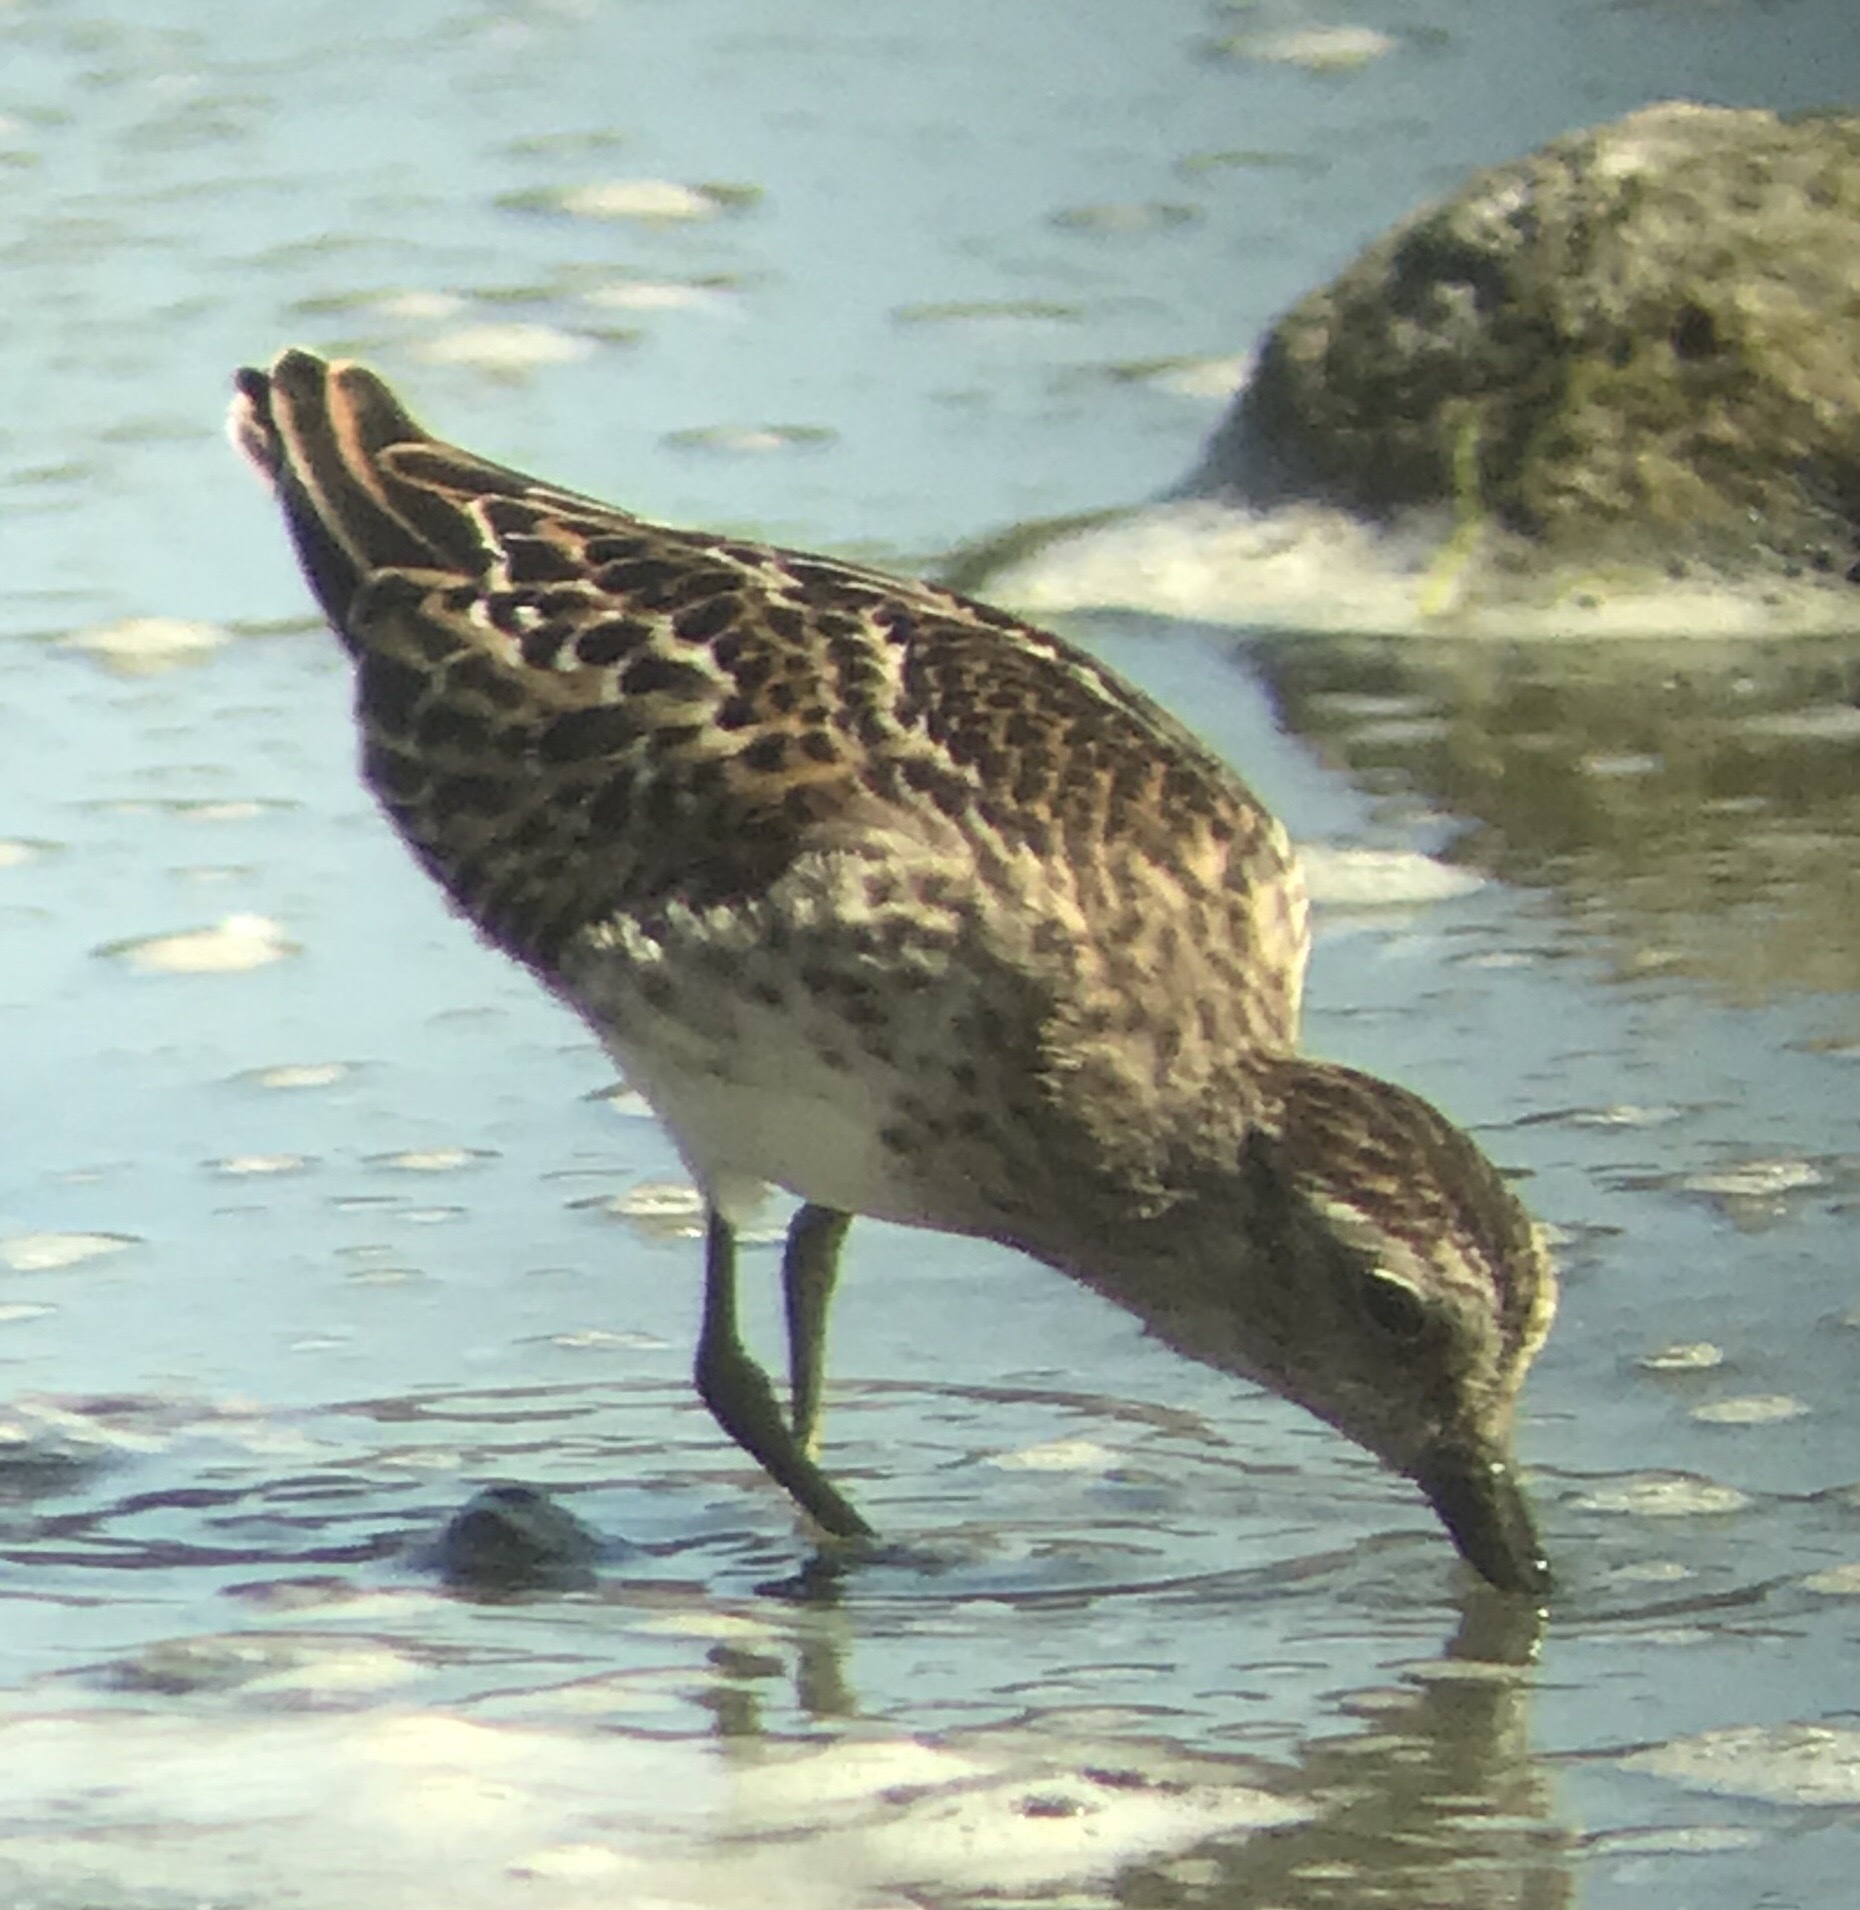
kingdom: Animalia
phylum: Chordata
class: Aves
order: Charadriiformes
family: Scolopacidae
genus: Calidris
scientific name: Calidris minutilla
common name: Least sandpiper
